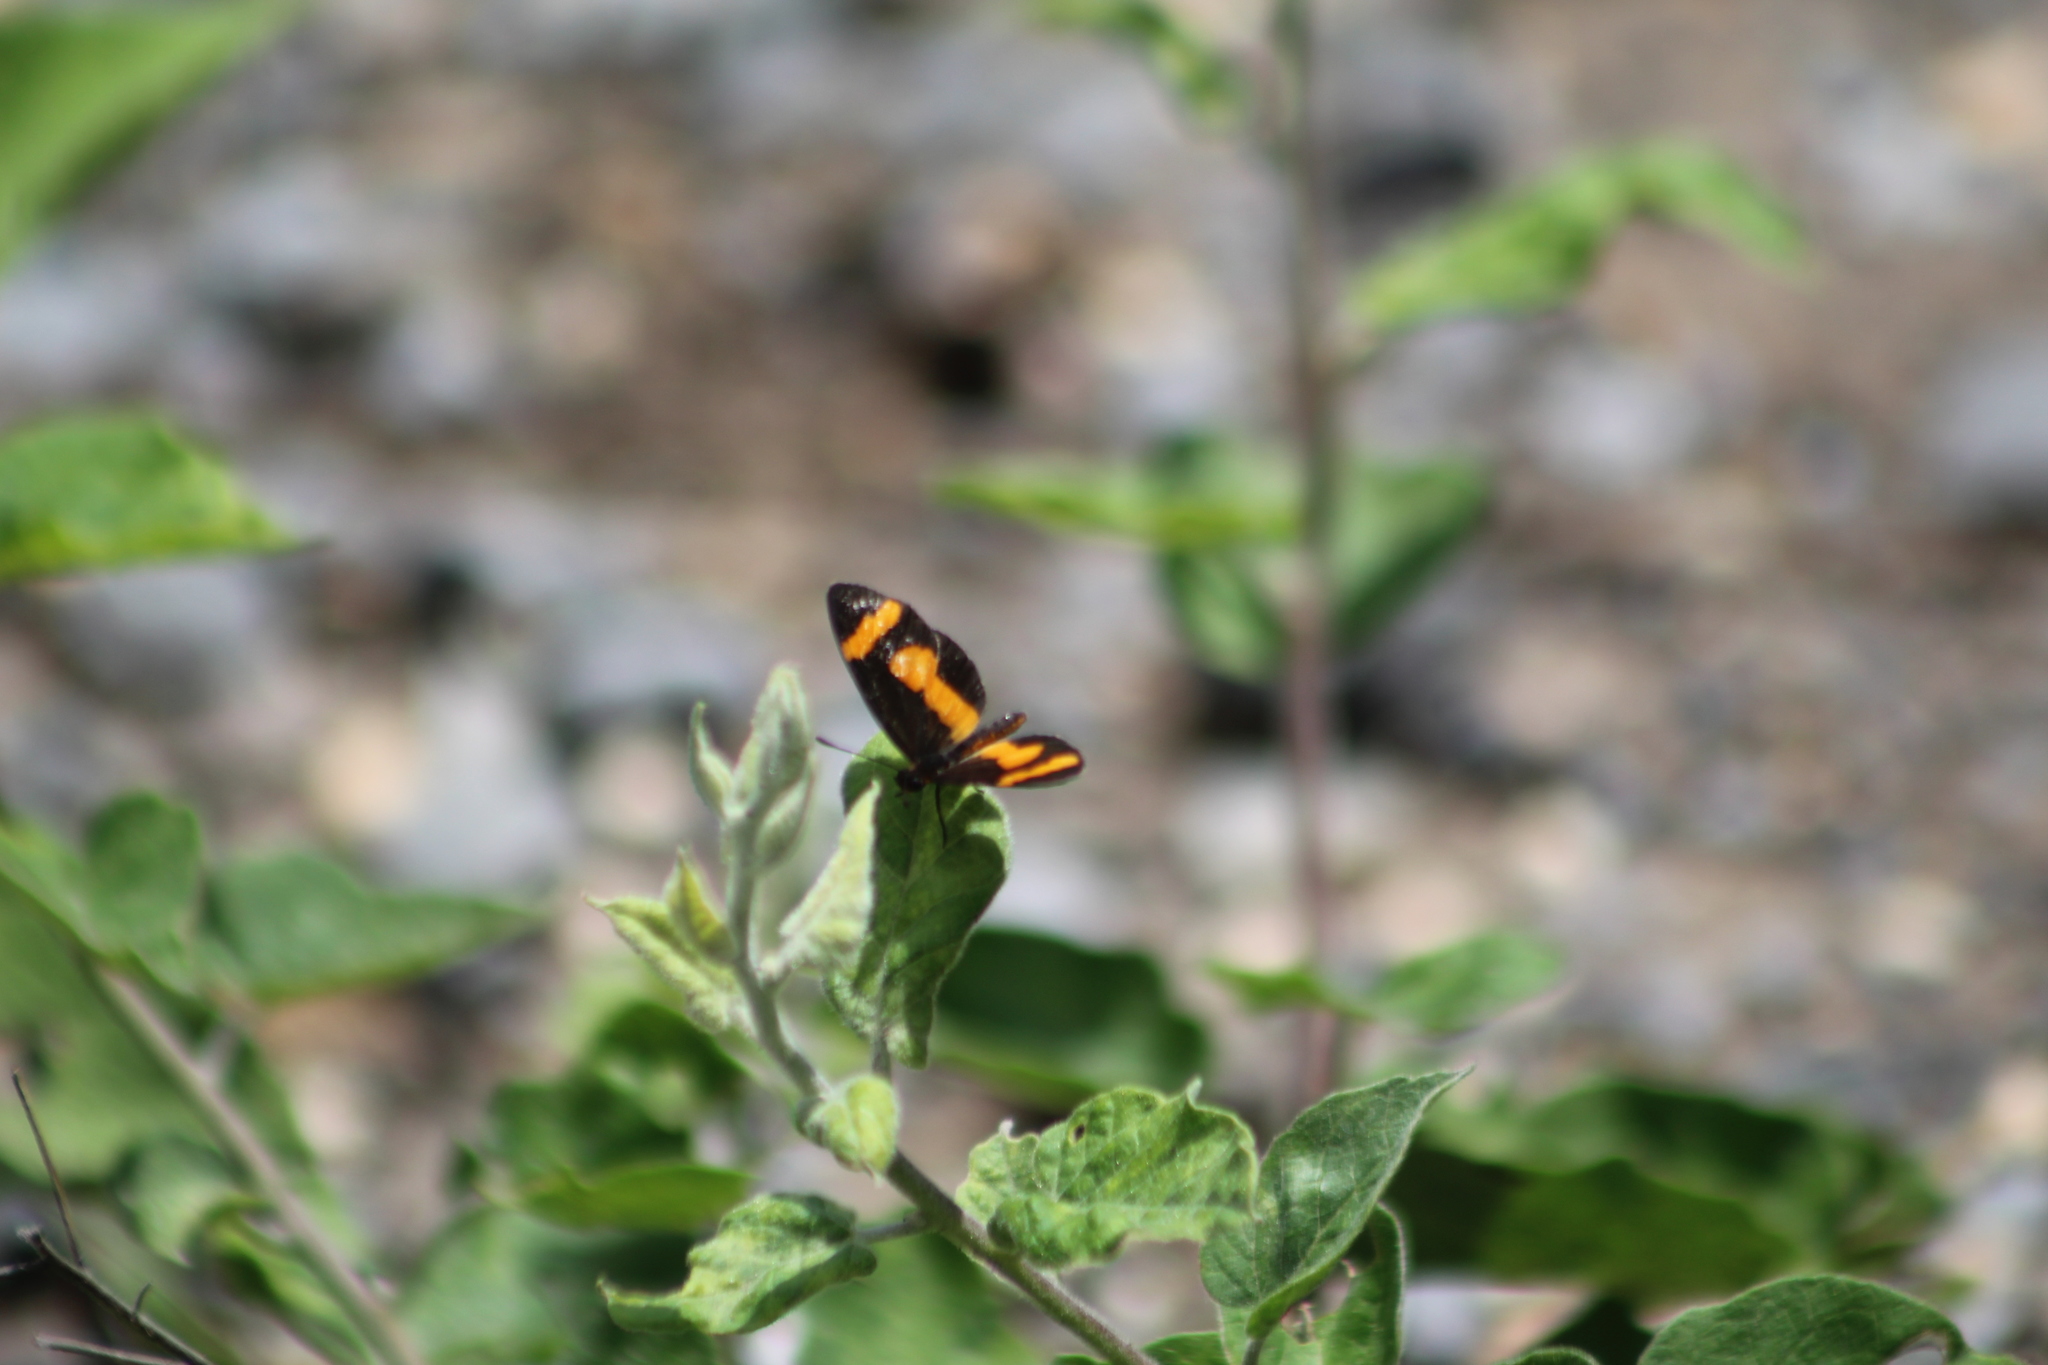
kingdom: Animalia
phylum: Arthropoda
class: Insecta
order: Lepidoptera
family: Nymphalidae
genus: Microtia
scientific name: Microtia elva
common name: Elf
